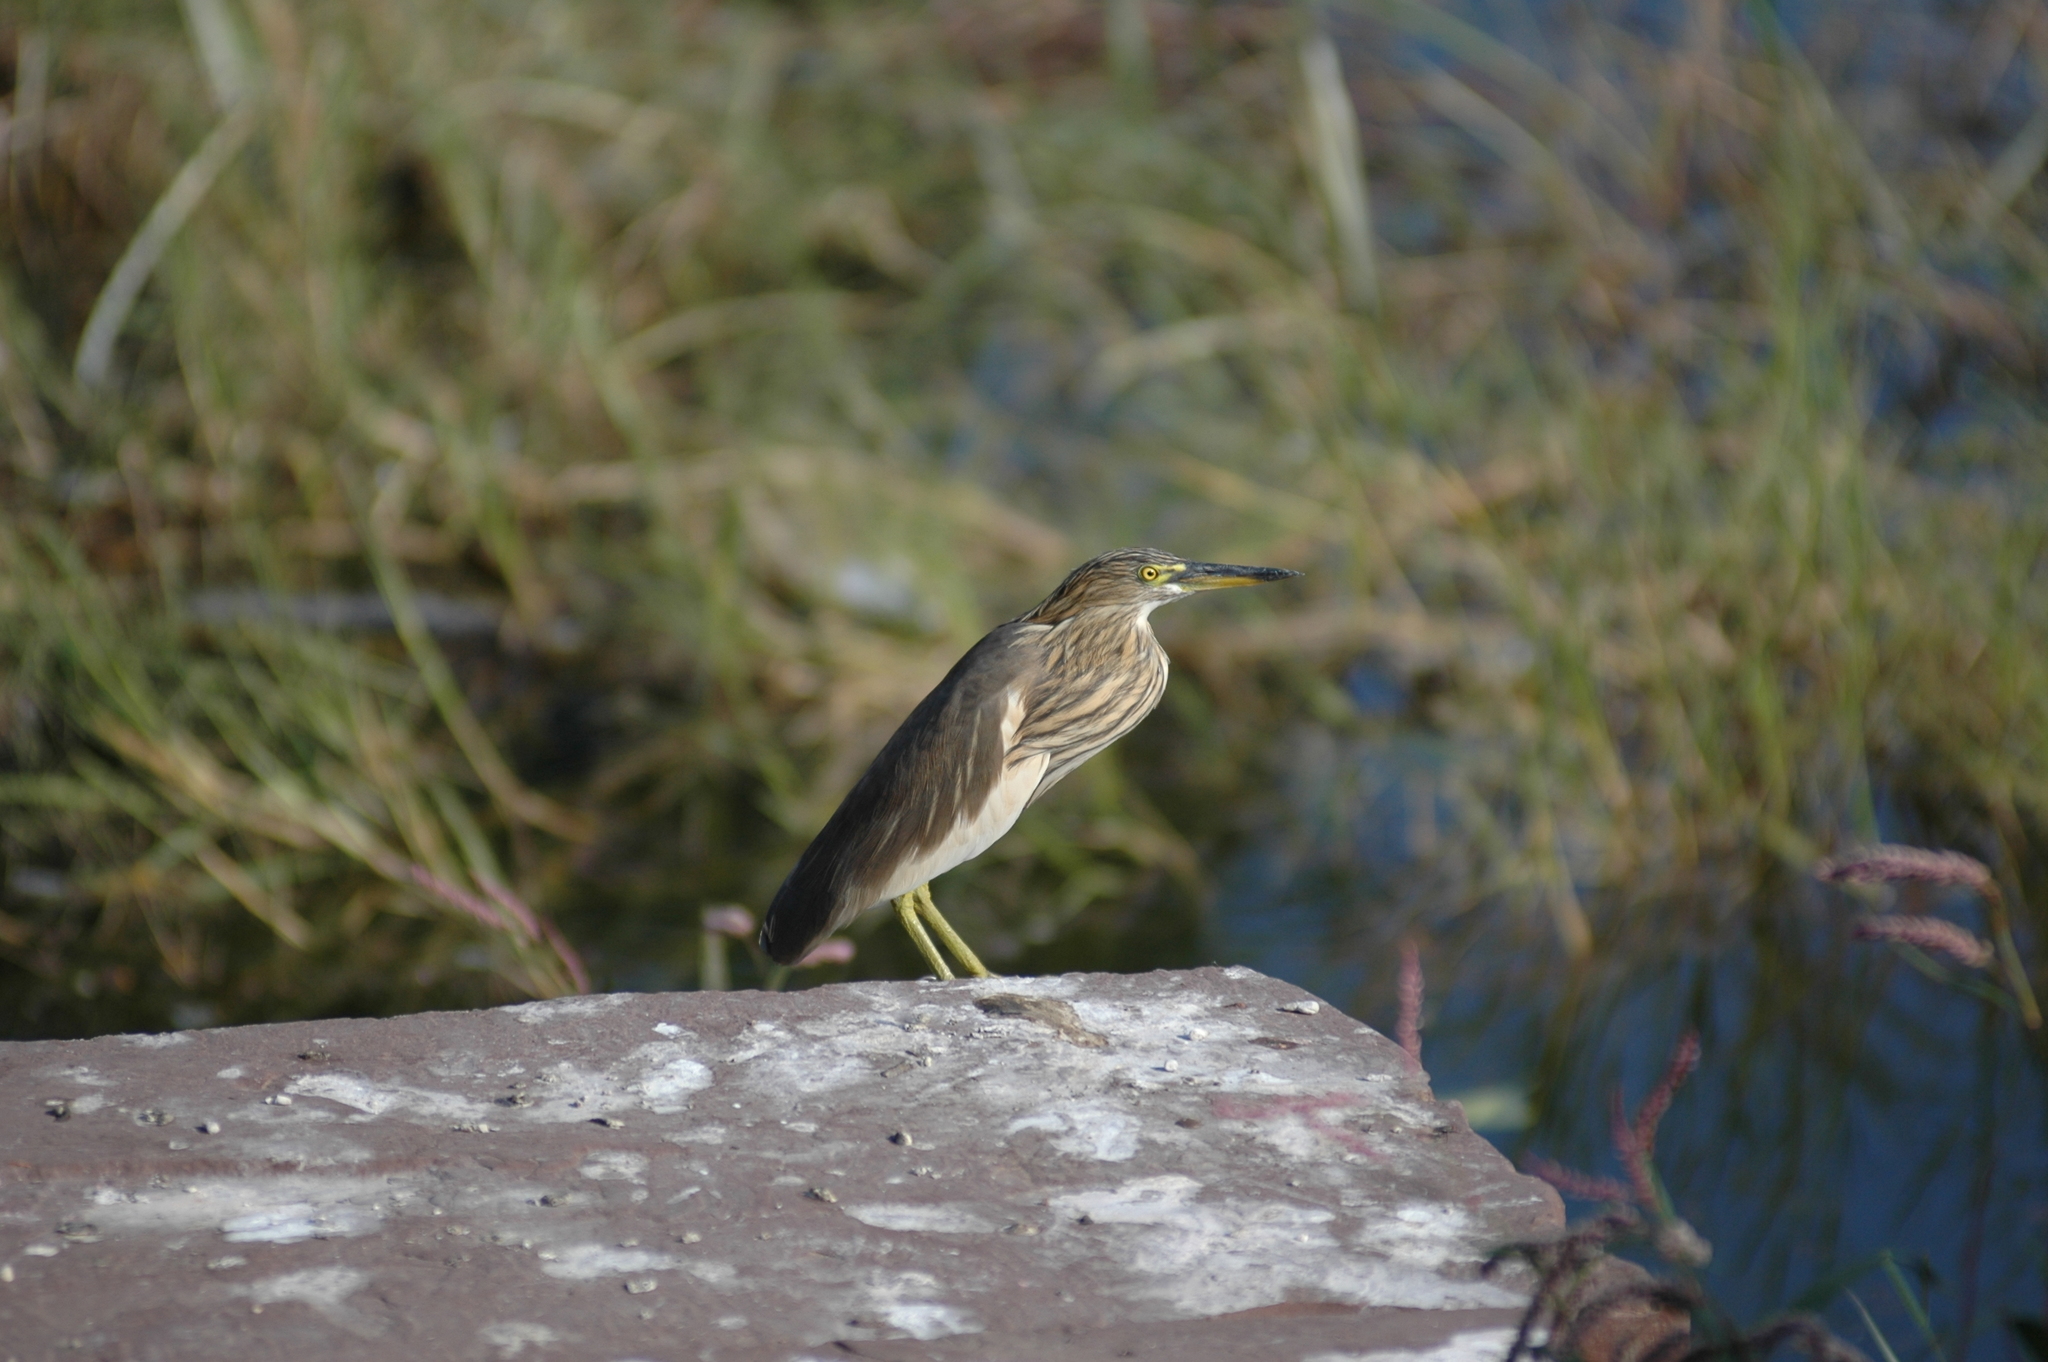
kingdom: Animalia
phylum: Chordata
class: Aves
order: Pelecaniformes
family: Ardeidae
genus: Ardeola
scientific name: Ardeola grayii
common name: Indian pond heron
